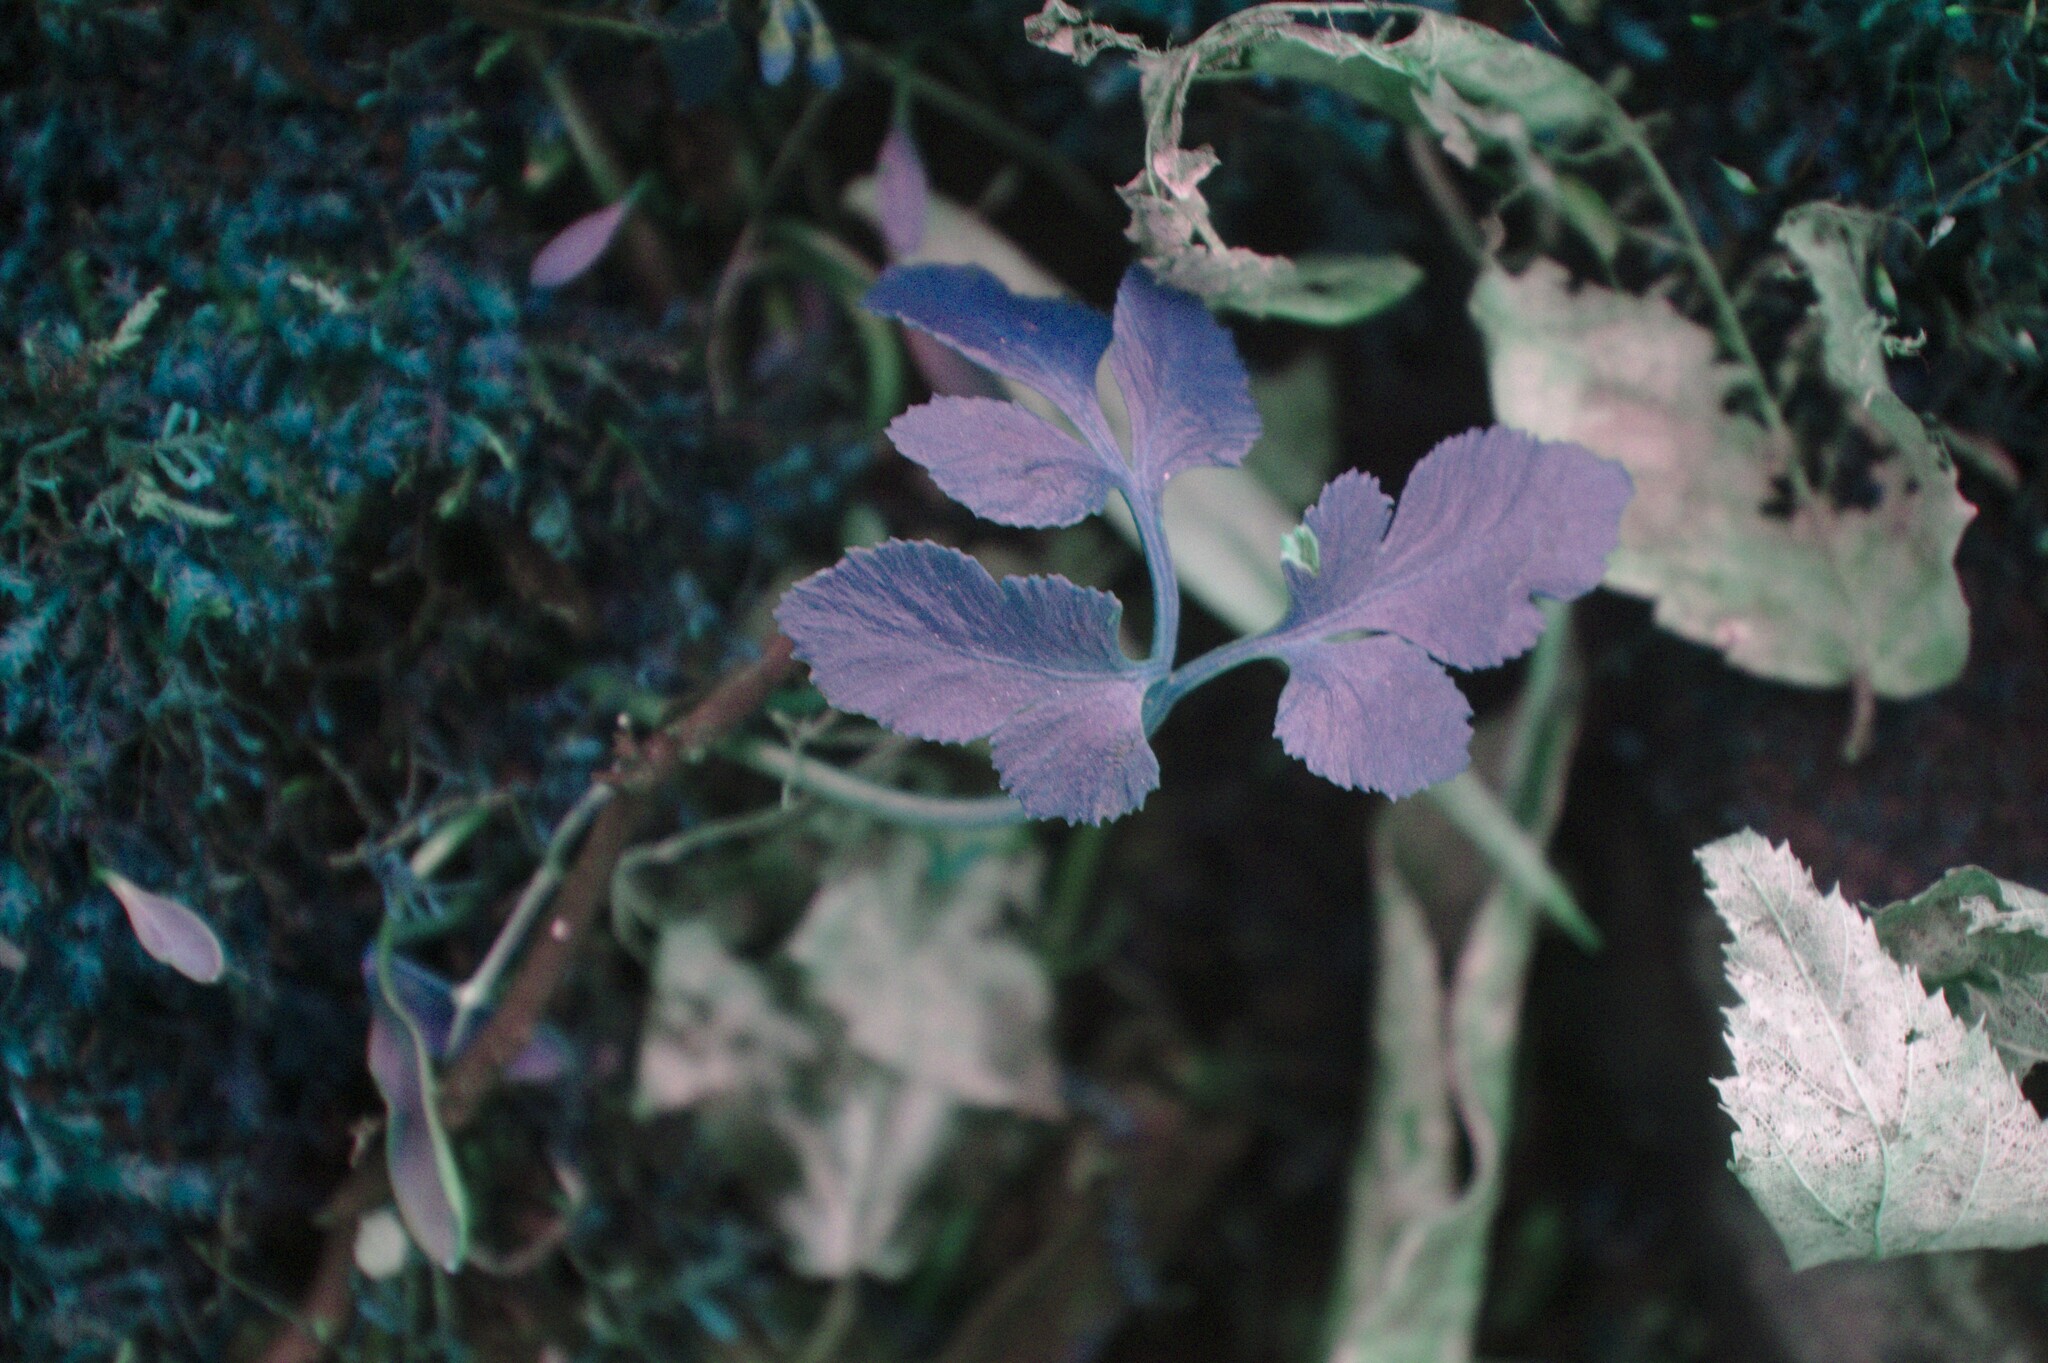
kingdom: Plantae
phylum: Tracheophyta
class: Polypodiopsida
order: Ophioglossales
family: Ophioglossaceae
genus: Sceptridium
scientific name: Sceptridium dissectum
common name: Cut-leaved grapefern
